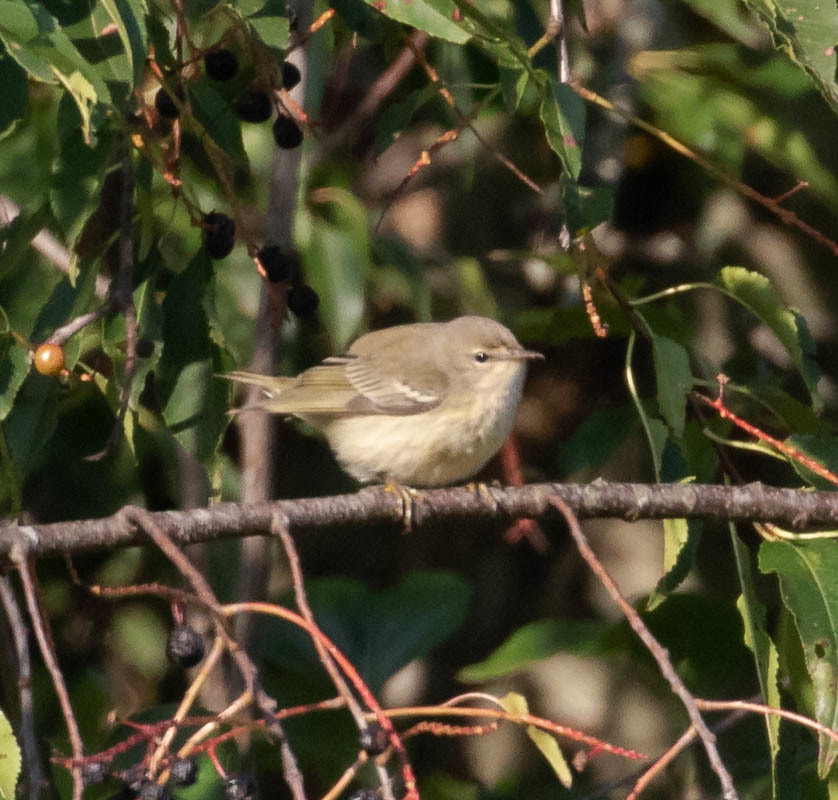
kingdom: Animalia
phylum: Chordata
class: Aves
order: Passeriformes
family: Parulidae
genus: Setophaga
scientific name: Setophaga tigrina
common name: Cape may warbler
